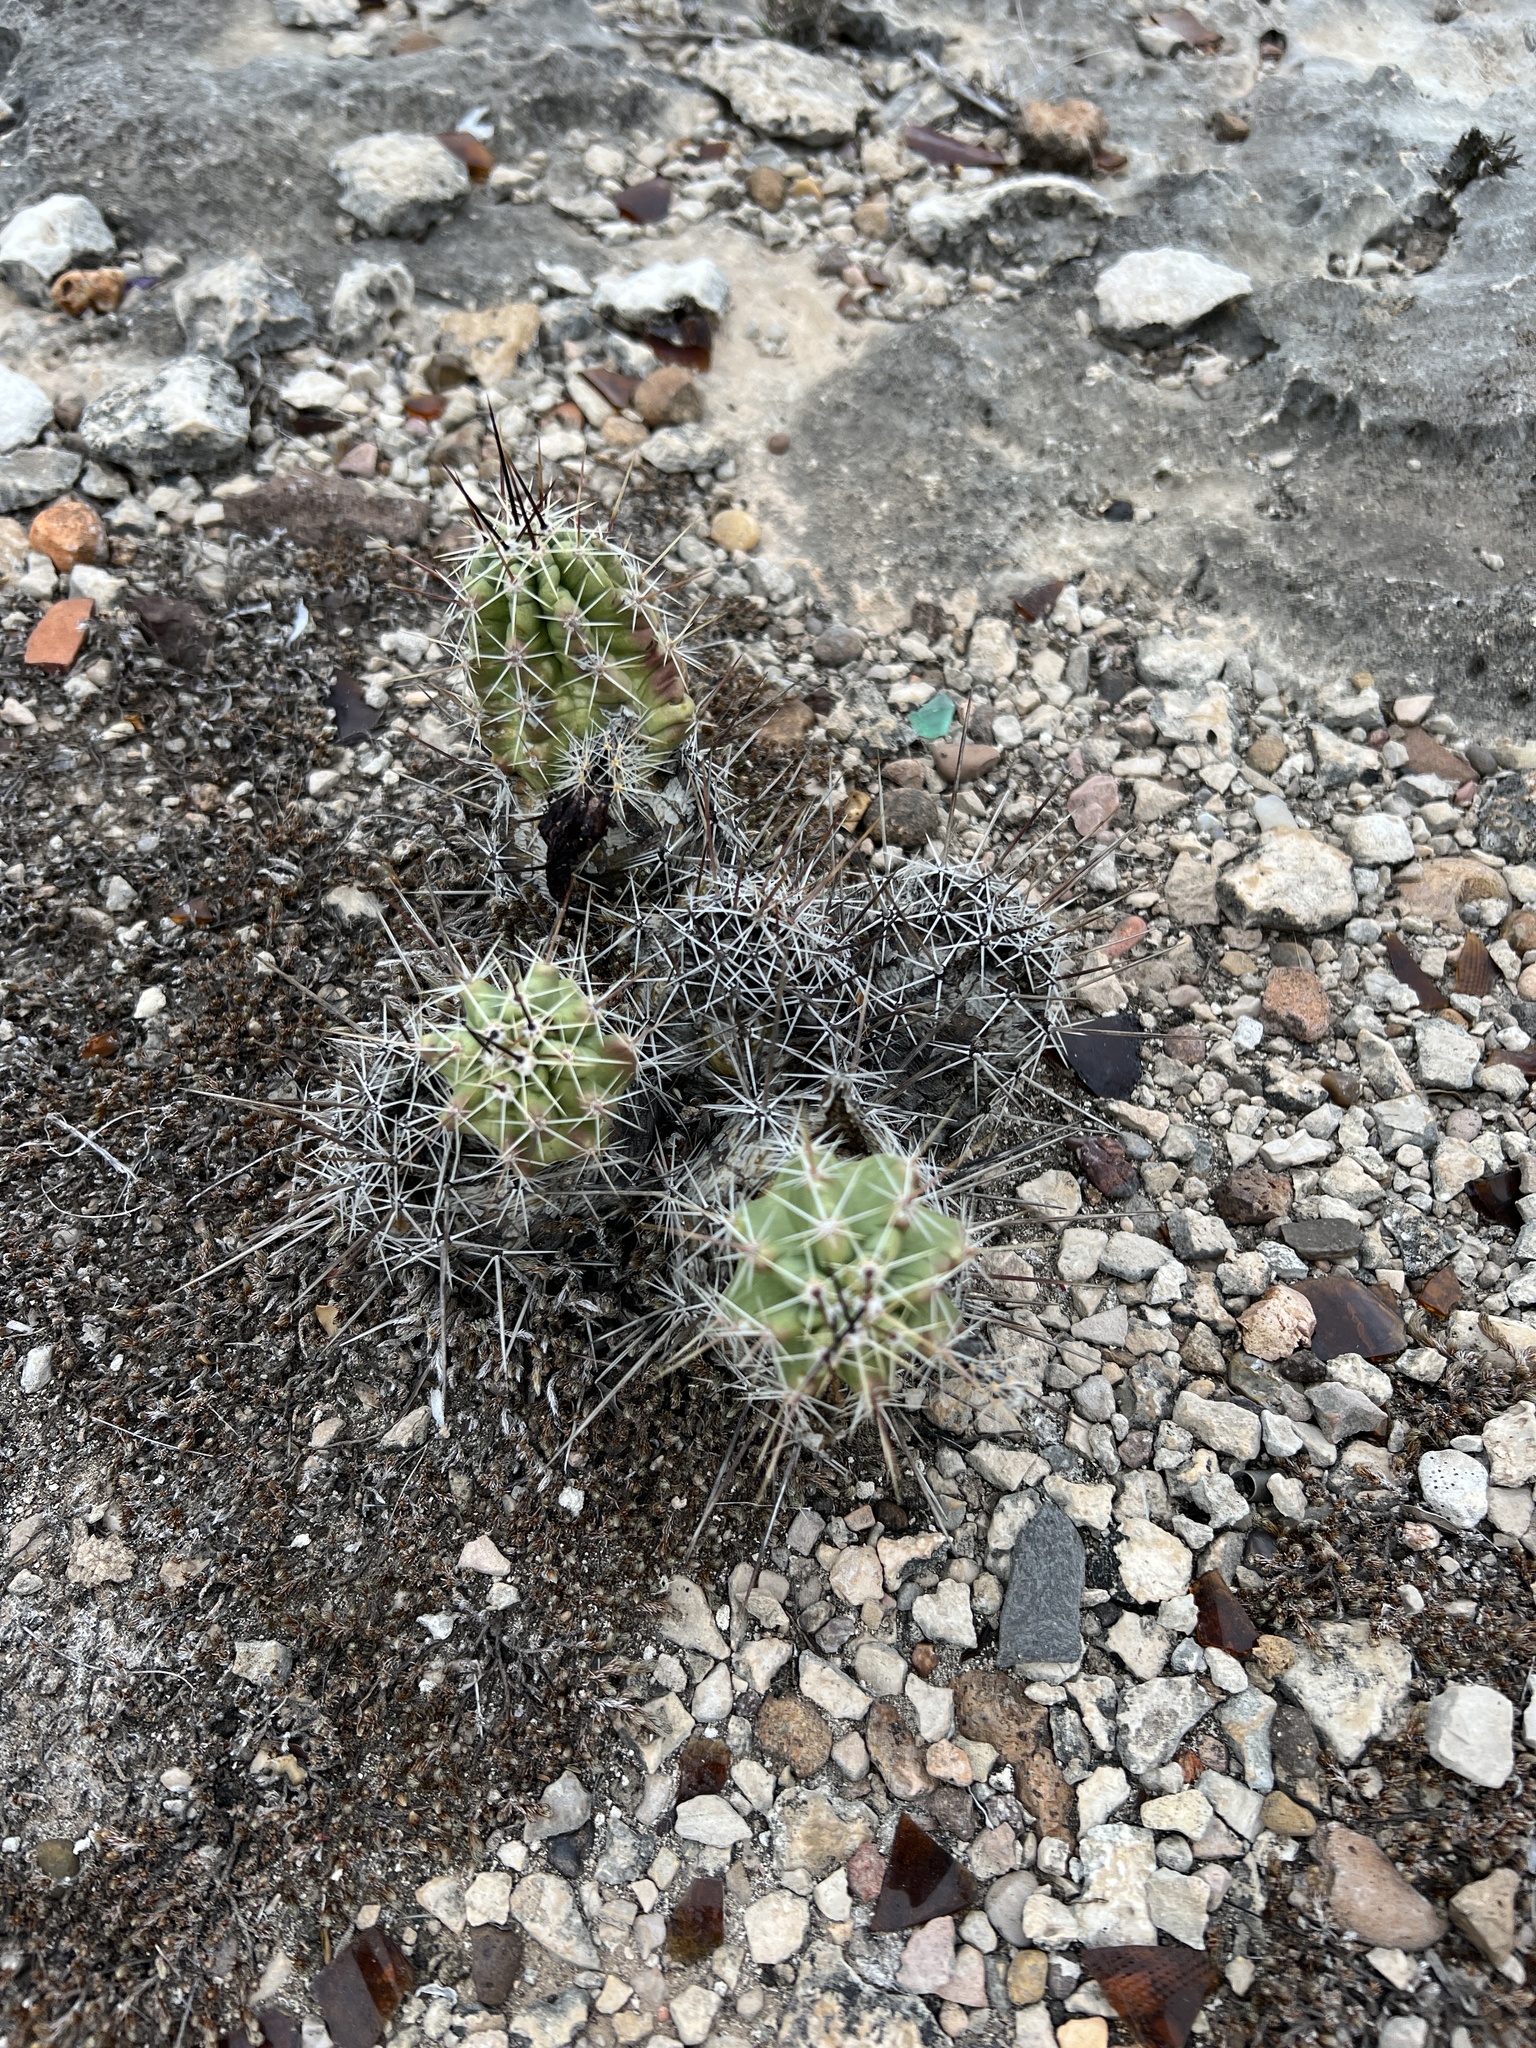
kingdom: Plantae
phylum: Tracheophyta
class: Magnoliopsida
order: Caryophyllales
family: Cactaceae
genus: Echinocereus
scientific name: Echinocereus enneacanthus
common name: Pitaya
